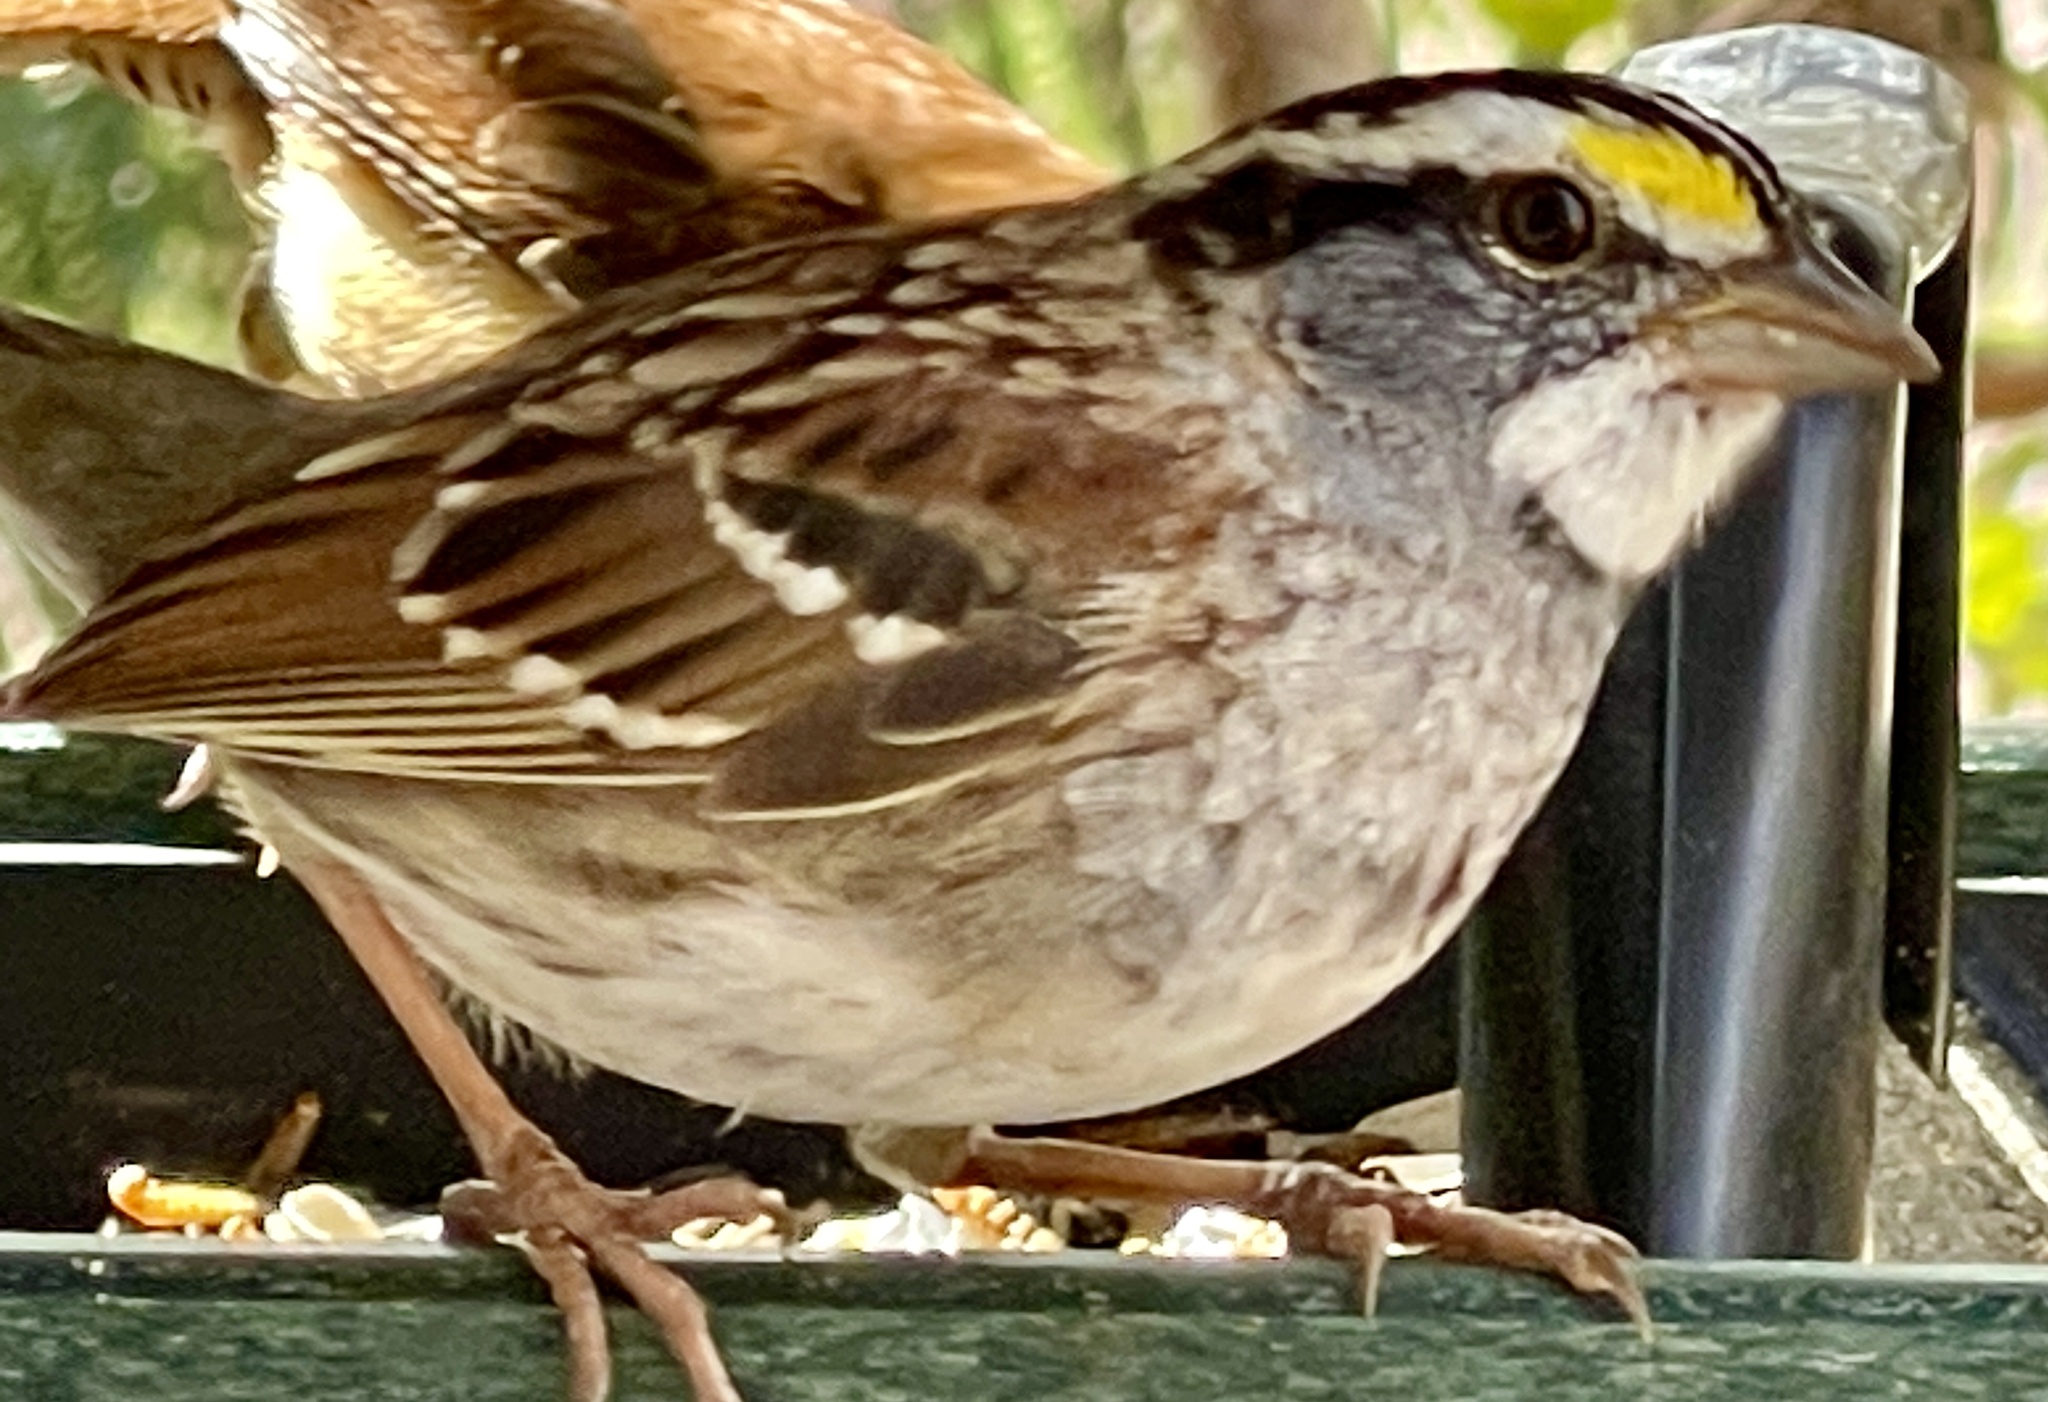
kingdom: Animalia
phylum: Chordata
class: Aves
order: Passeriformes
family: Passerellidae
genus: Zonotrichia
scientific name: Zonotrichia albicollis
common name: White-throated sparrow
